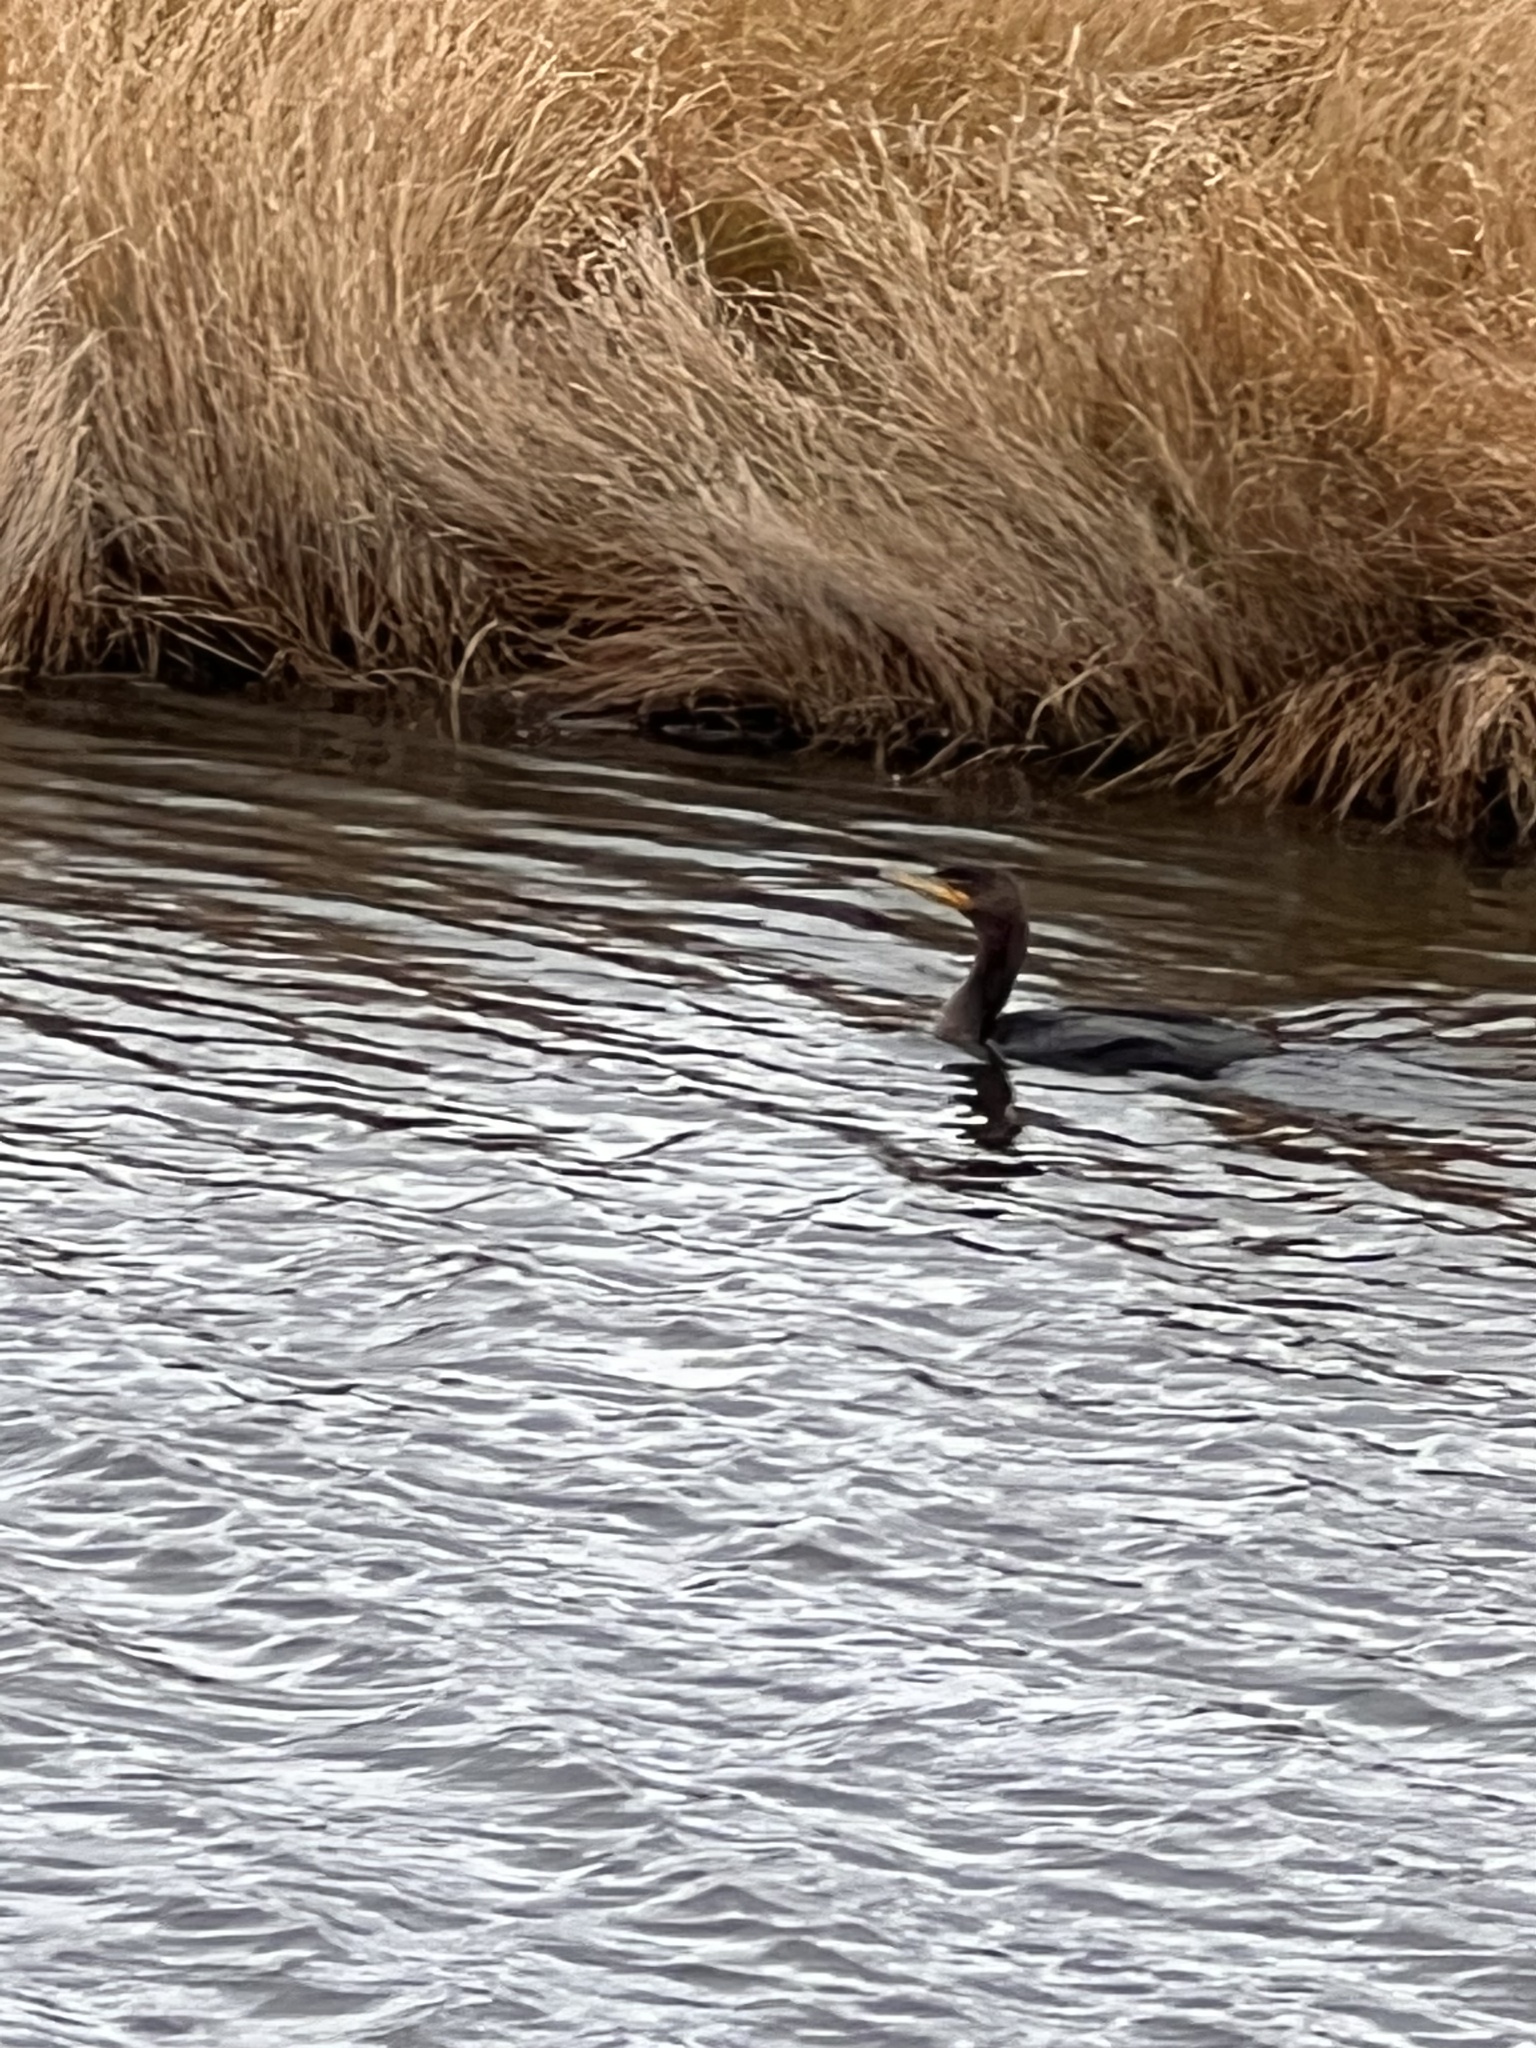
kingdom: Animalia
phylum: Chordata
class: Aves
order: Suliformes
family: Phalacrocoracidae
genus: Phalacrocorax
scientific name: Phalacrocorax auritus
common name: Double-crested cormorant
